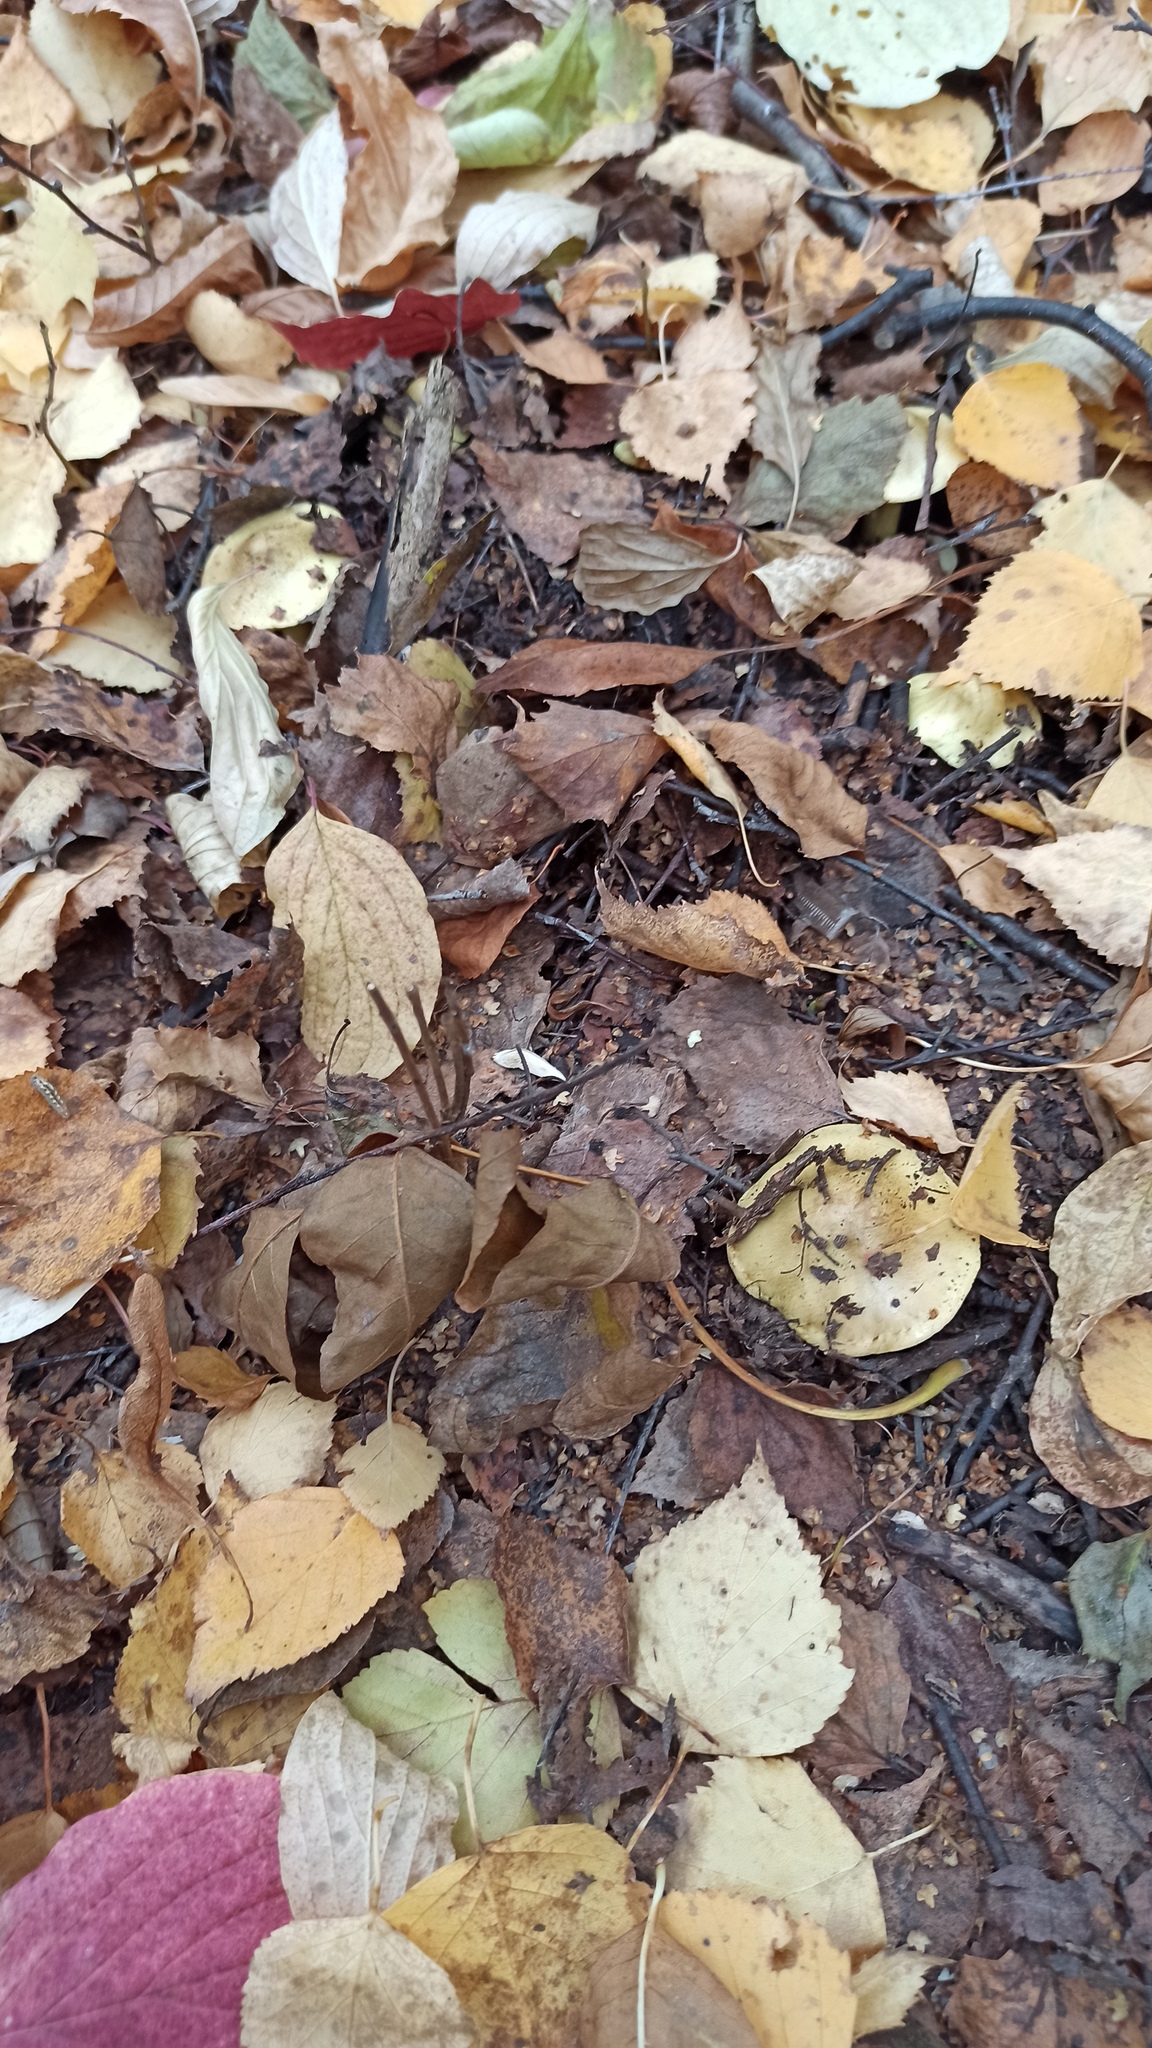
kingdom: Fungi
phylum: Basidiomycota
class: Agaricomycetes
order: Agaricales
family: Tricholomataceae
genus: Tricholoma
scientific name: Tricholoma frondosae
